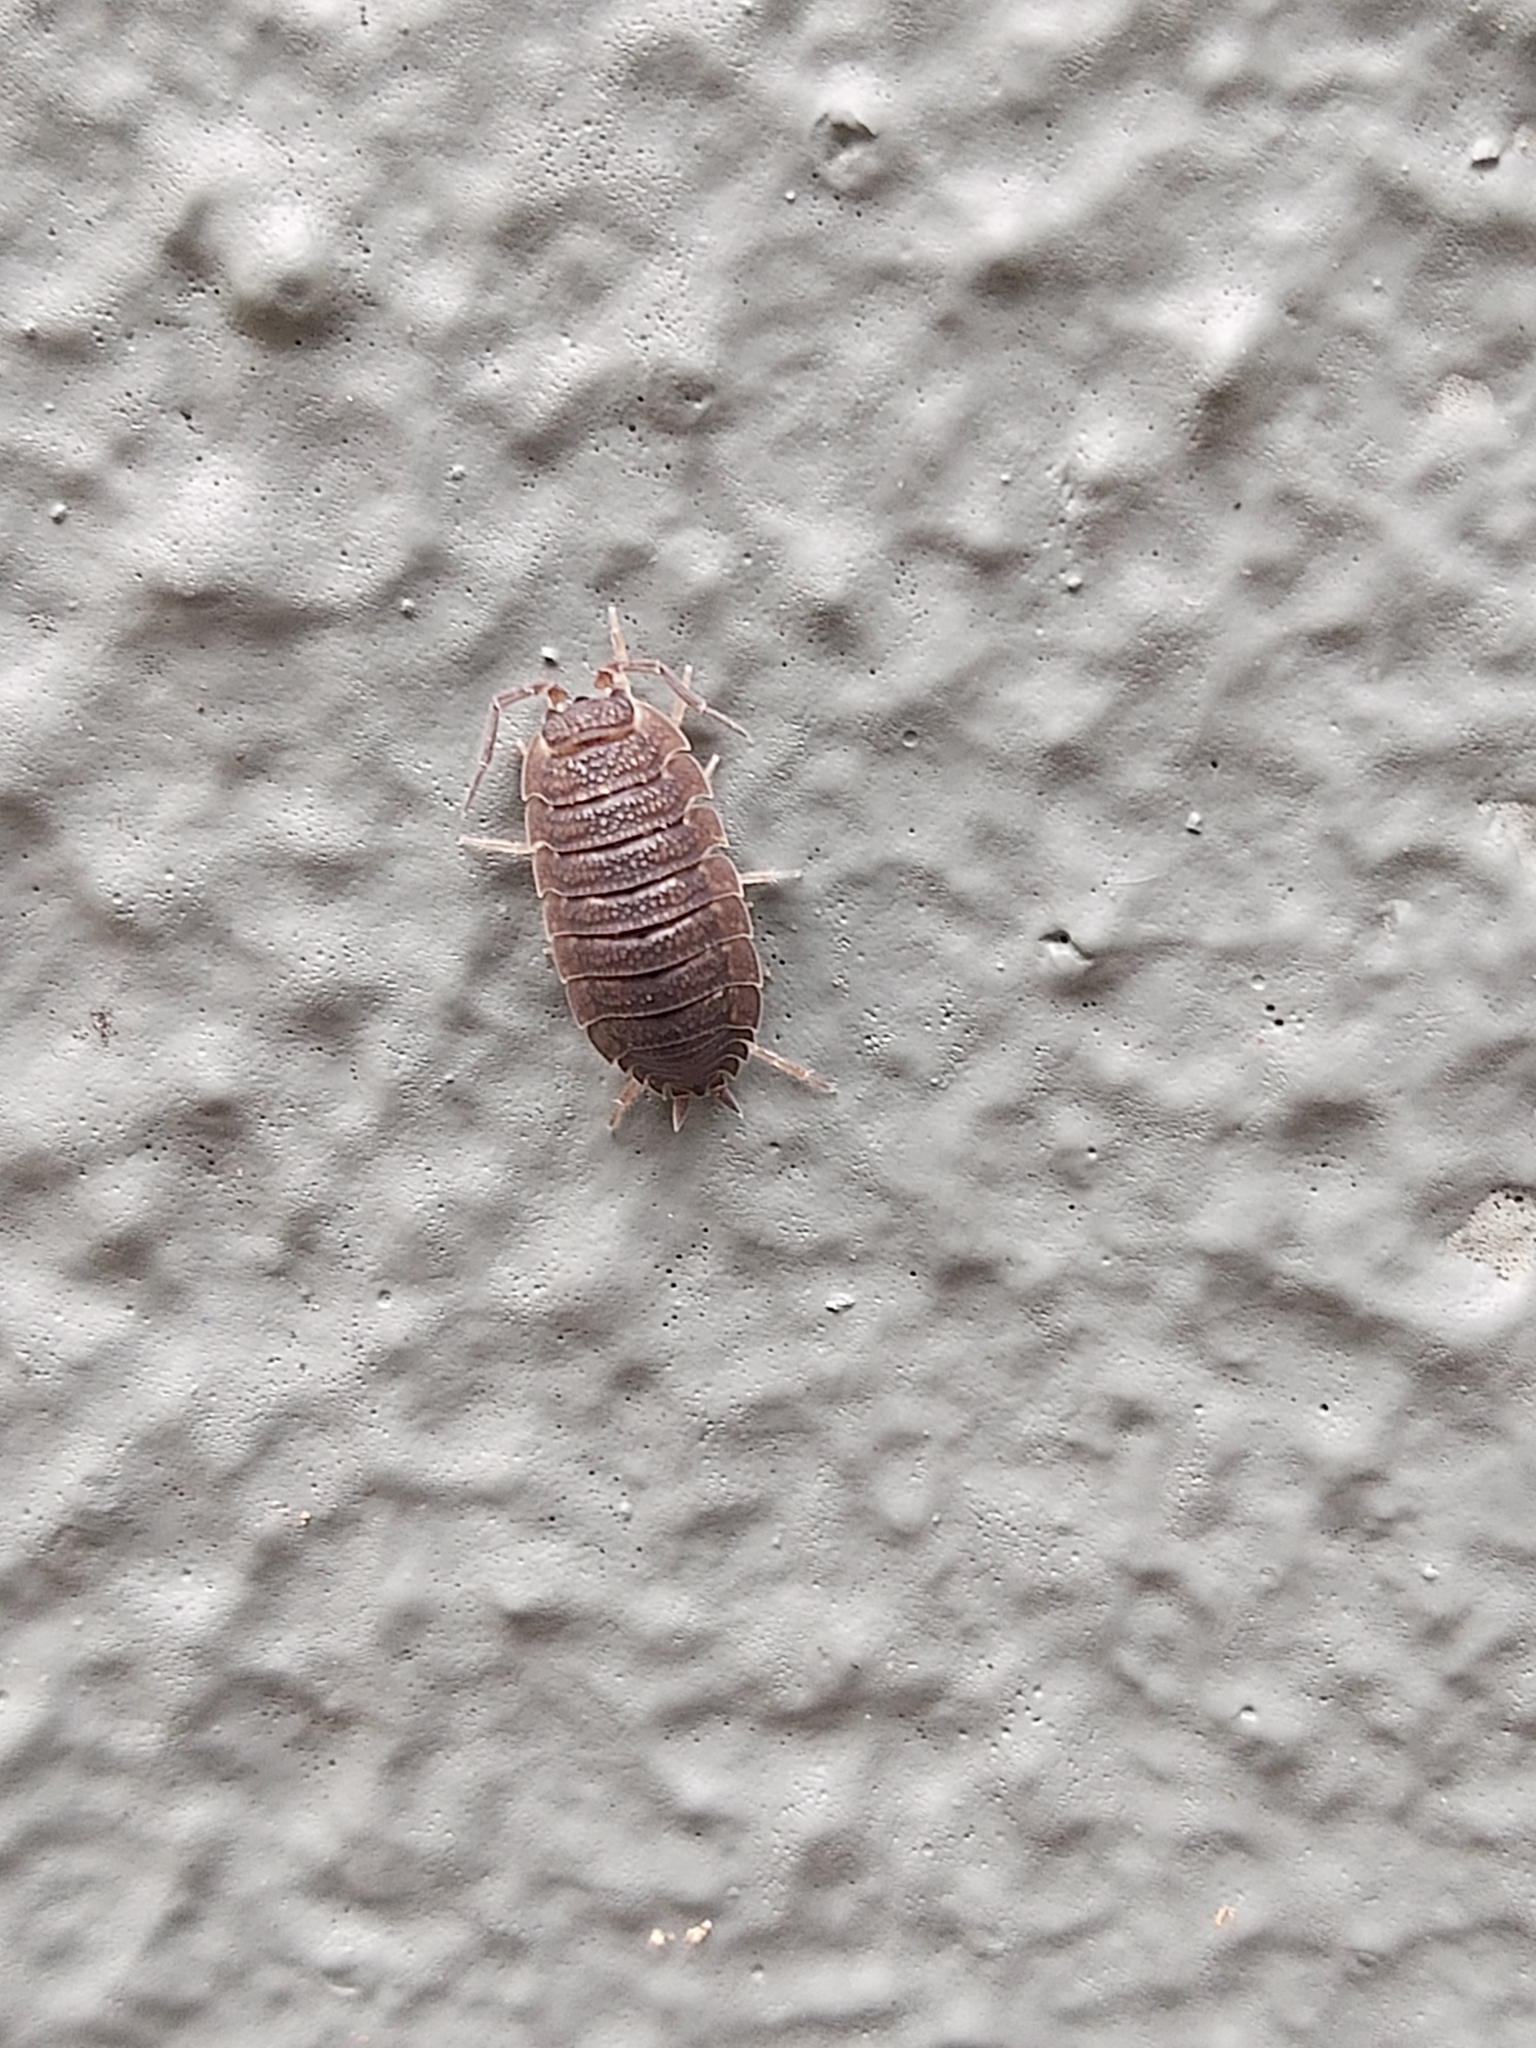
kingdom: Animalia
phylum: Arthropoda
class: Malacostraca
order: Isopoda
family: Porcellionidae
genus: Porcellio
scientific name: Porcellio scaber
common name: Common rough woodlouse
